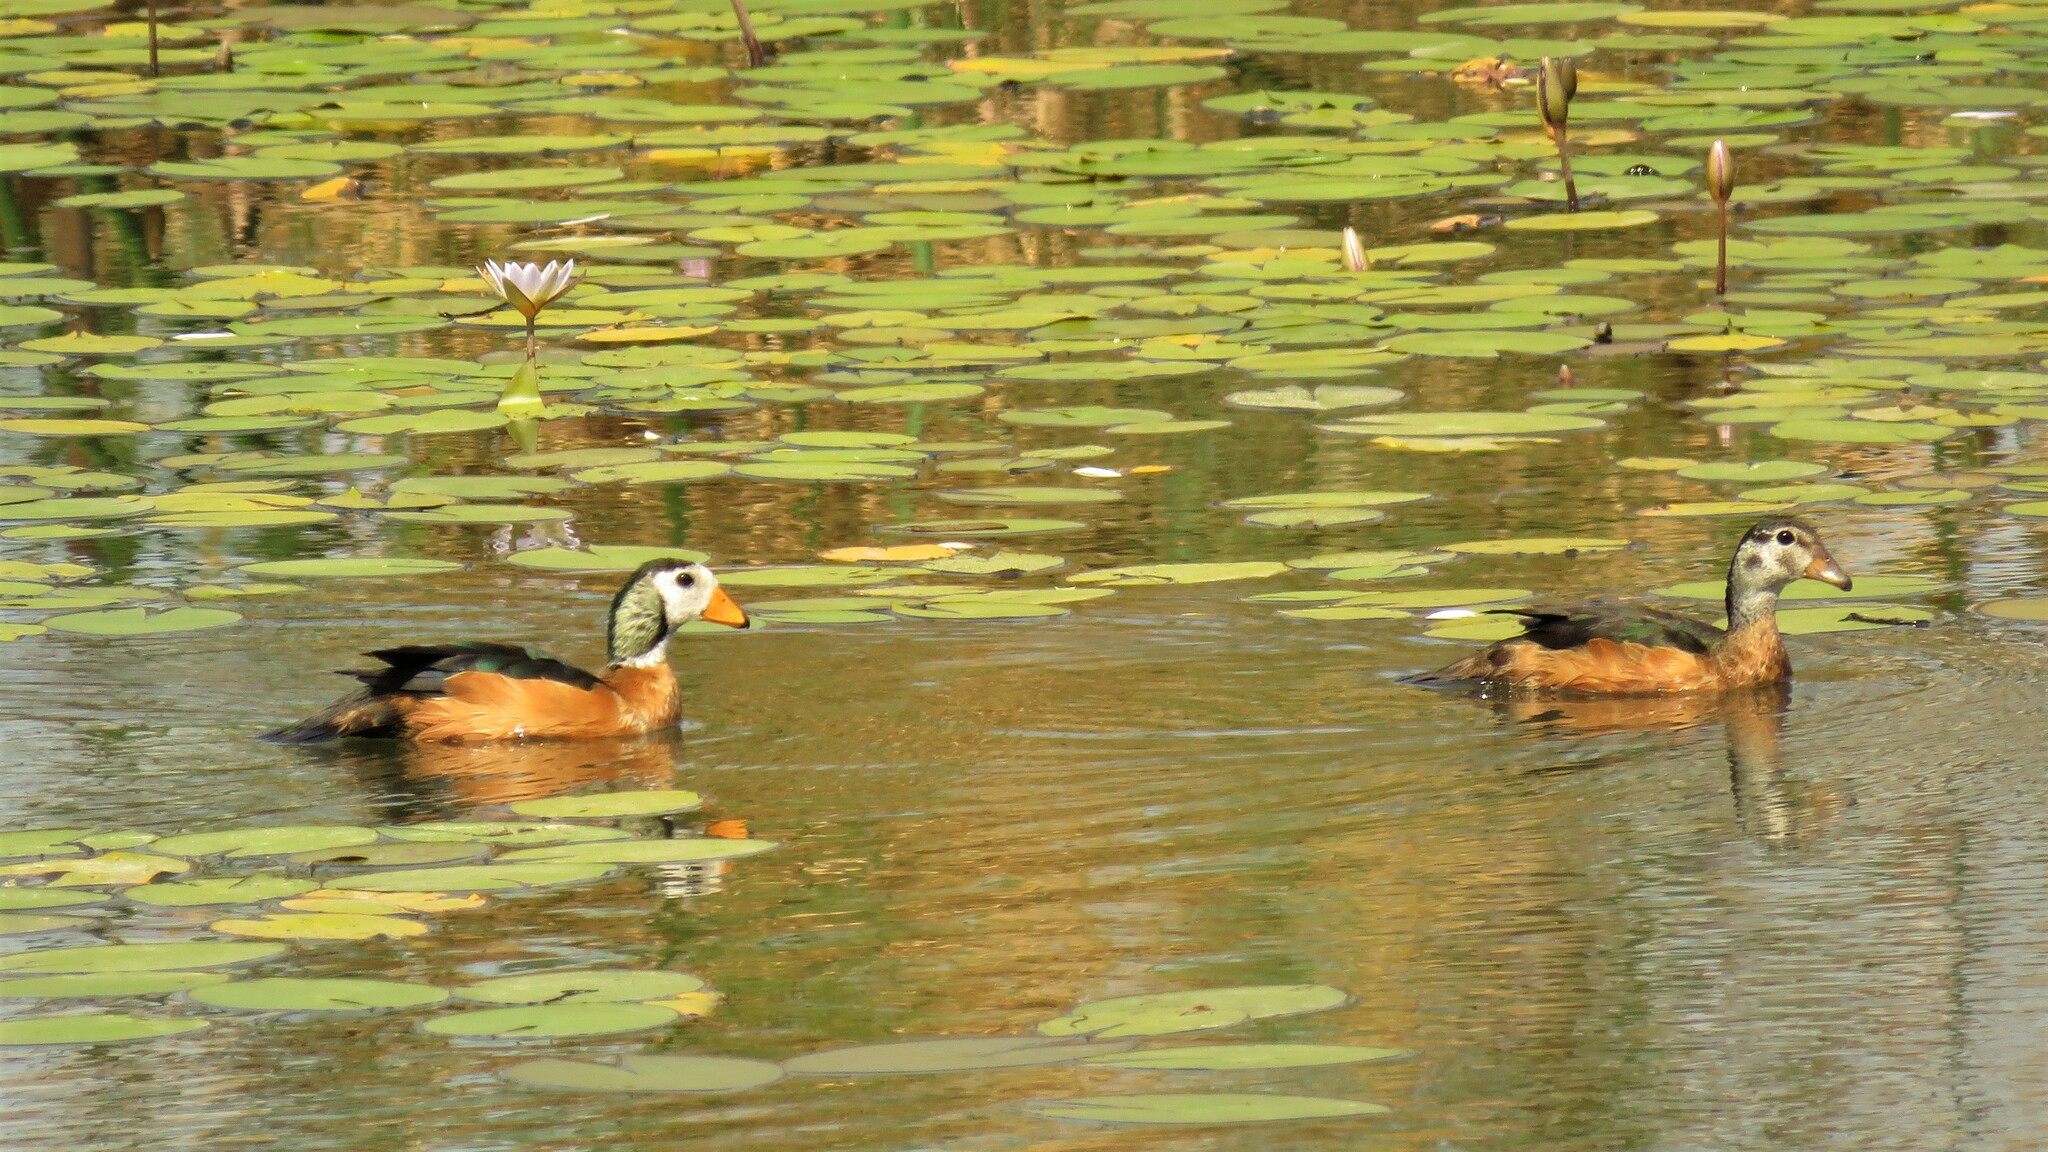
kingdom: Animalia
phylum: Chordata
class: Aves
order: Anseriformes
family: Anatidae
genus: Nettapus
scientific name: Nettapus auritus
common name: African pygmy-goose
